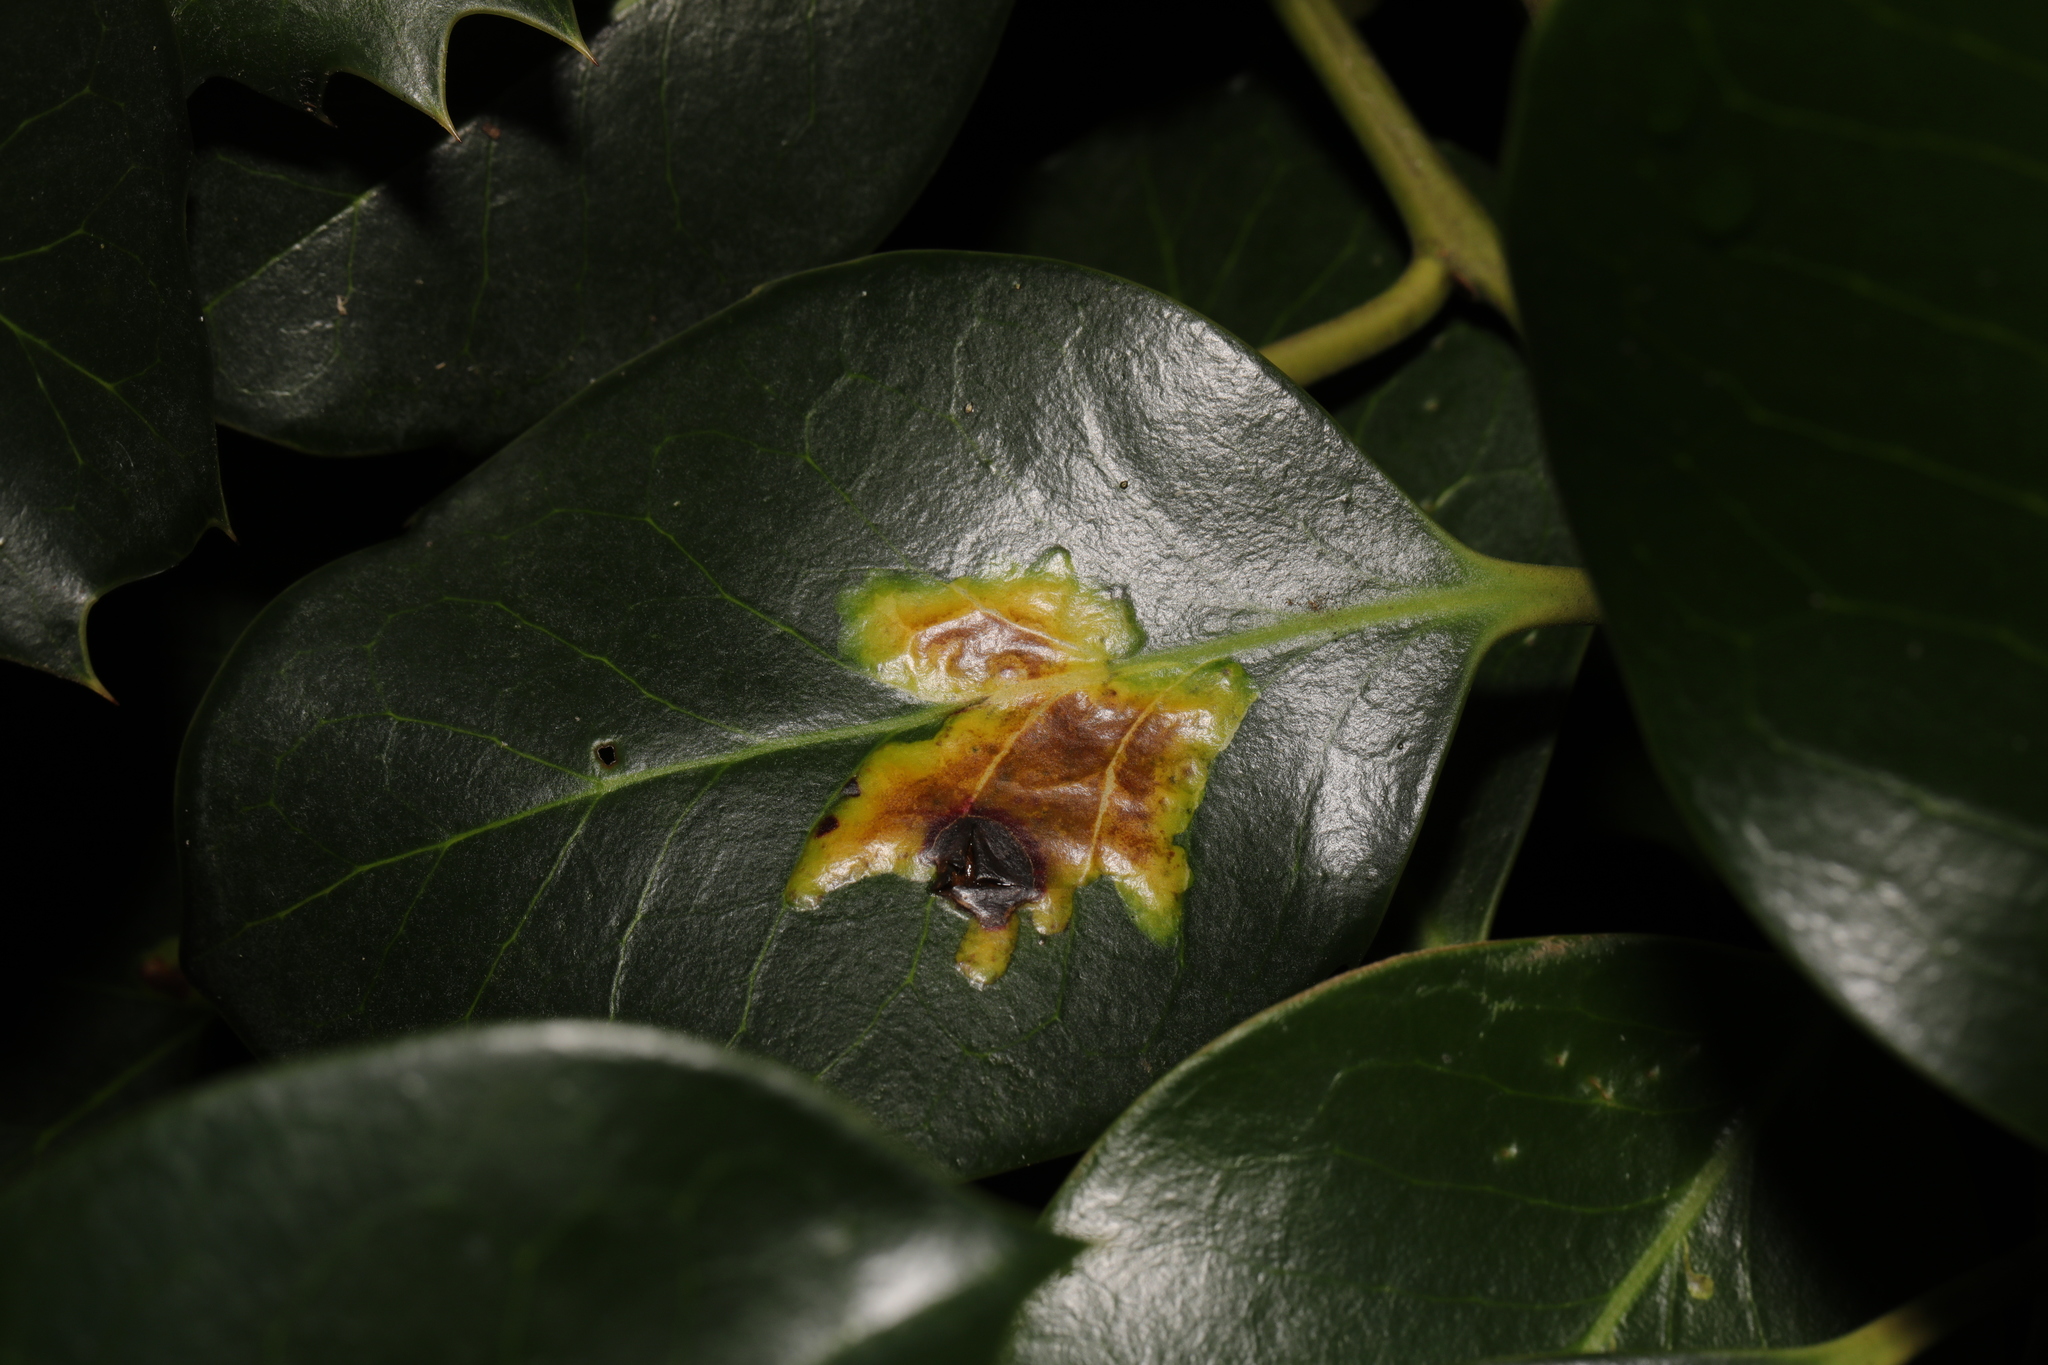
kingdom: Animalia
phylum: Arthropoda
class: Insecta
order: Diptera
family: Agromyzidae
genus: Phytomyza
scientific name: Phytomyza ilicis
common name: Holly leafminer
